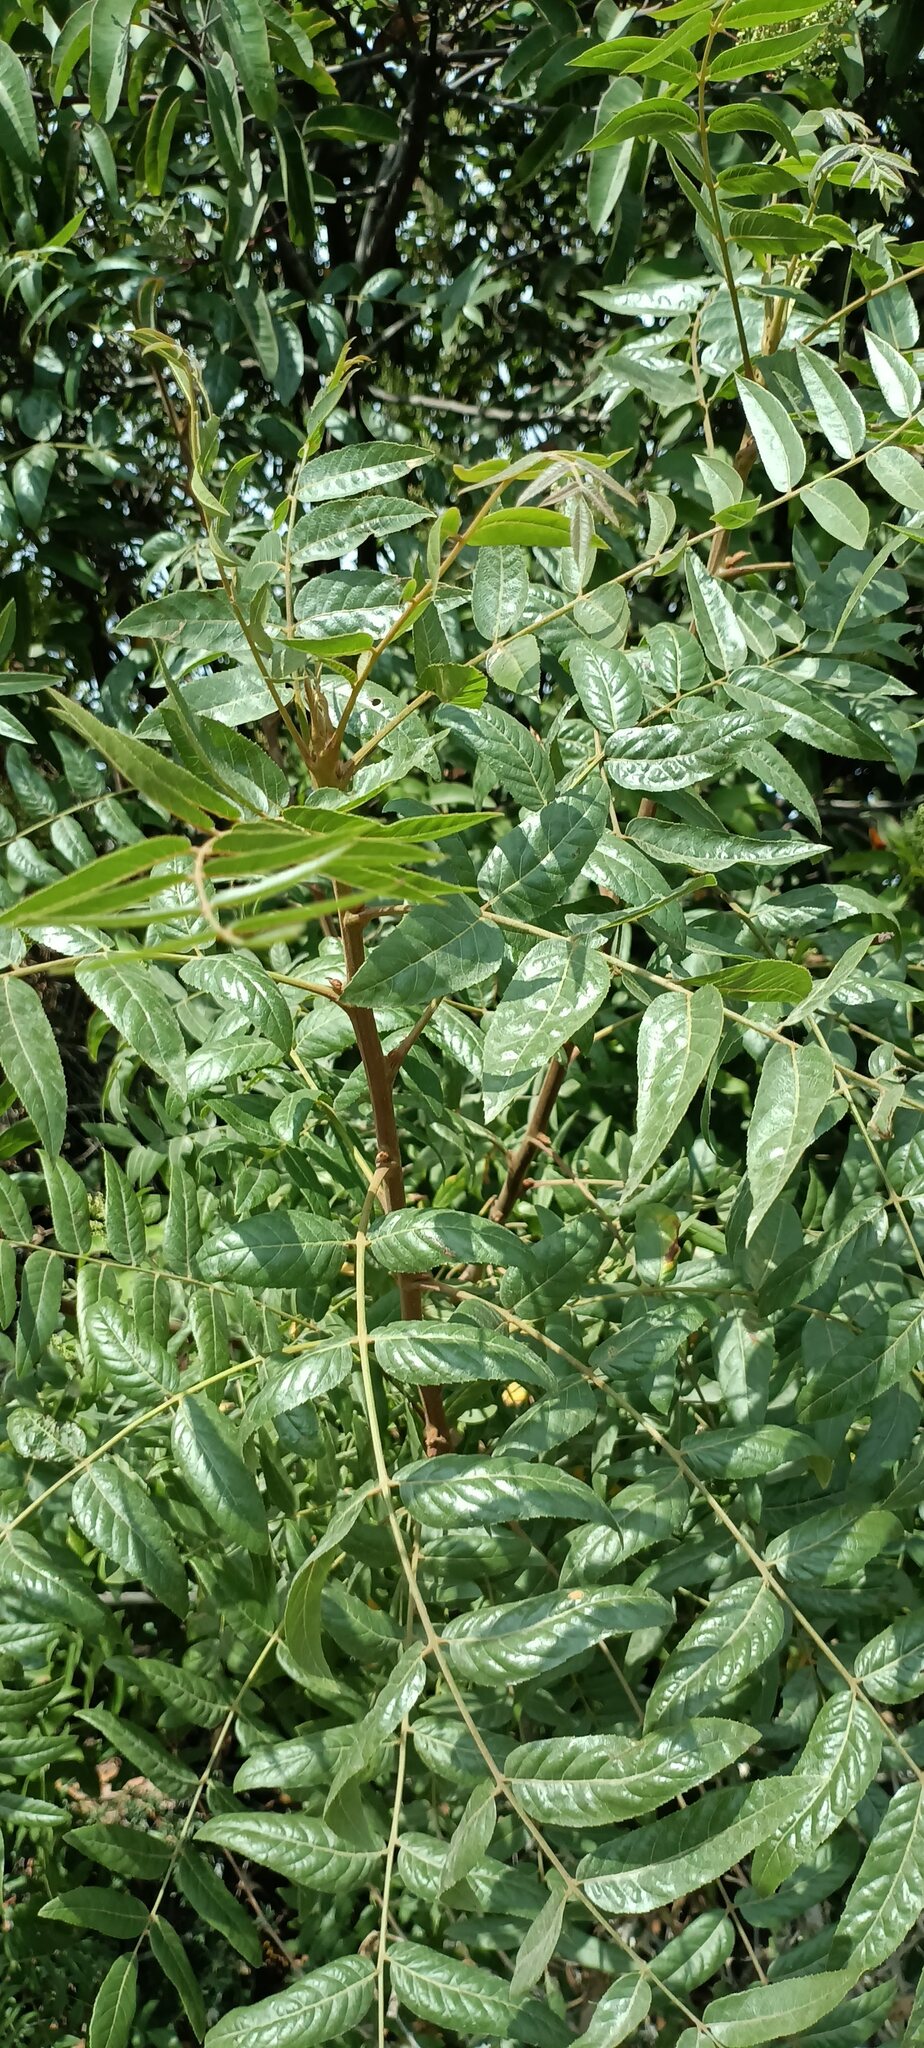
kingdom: Plantae
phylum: Tracheophyta
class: Magnoliopsida
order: Fagales
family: Juglandaceae
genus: Juglans
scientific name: Juglans californica
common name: Southern california black walnut
